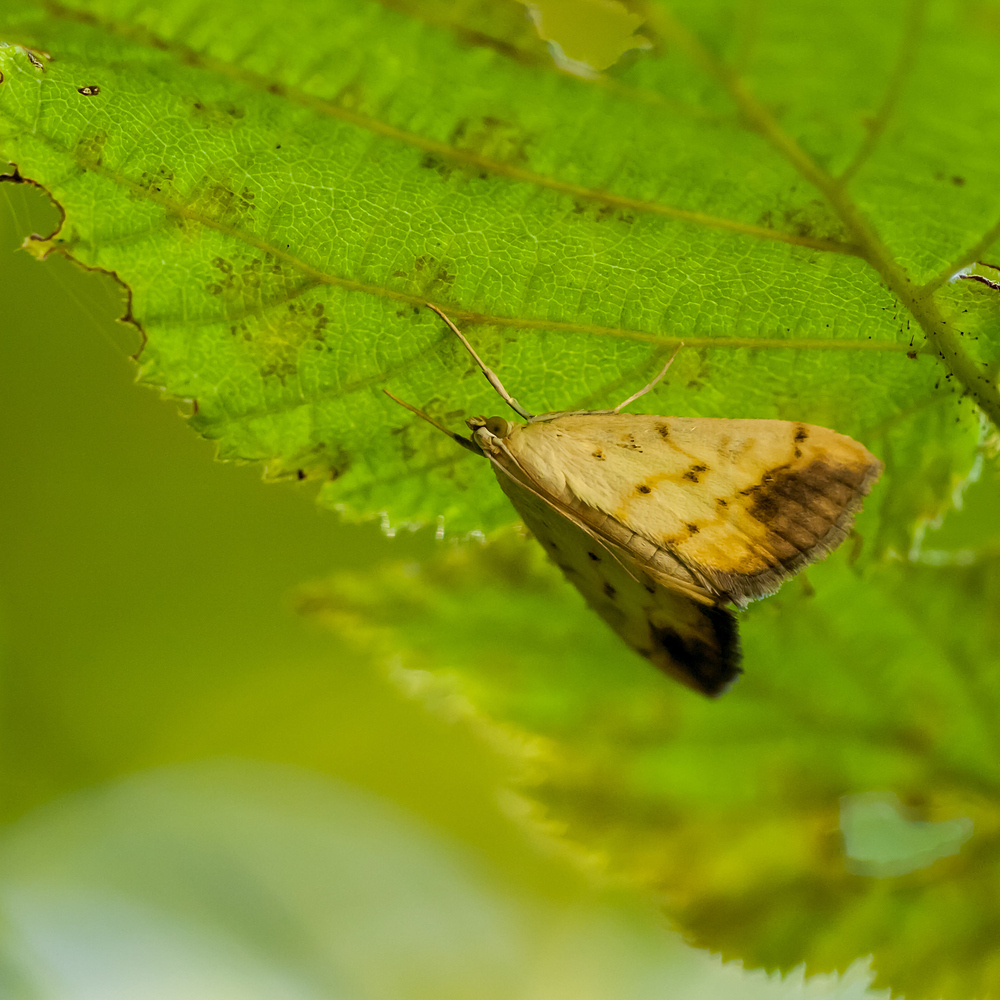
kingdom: Animalia
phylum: Arthropoda
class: Insecta
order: Lepidoptera
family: Crambidae
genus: Evergestis
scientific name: Evergestis extimalis
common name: Marbled yellow pearl
